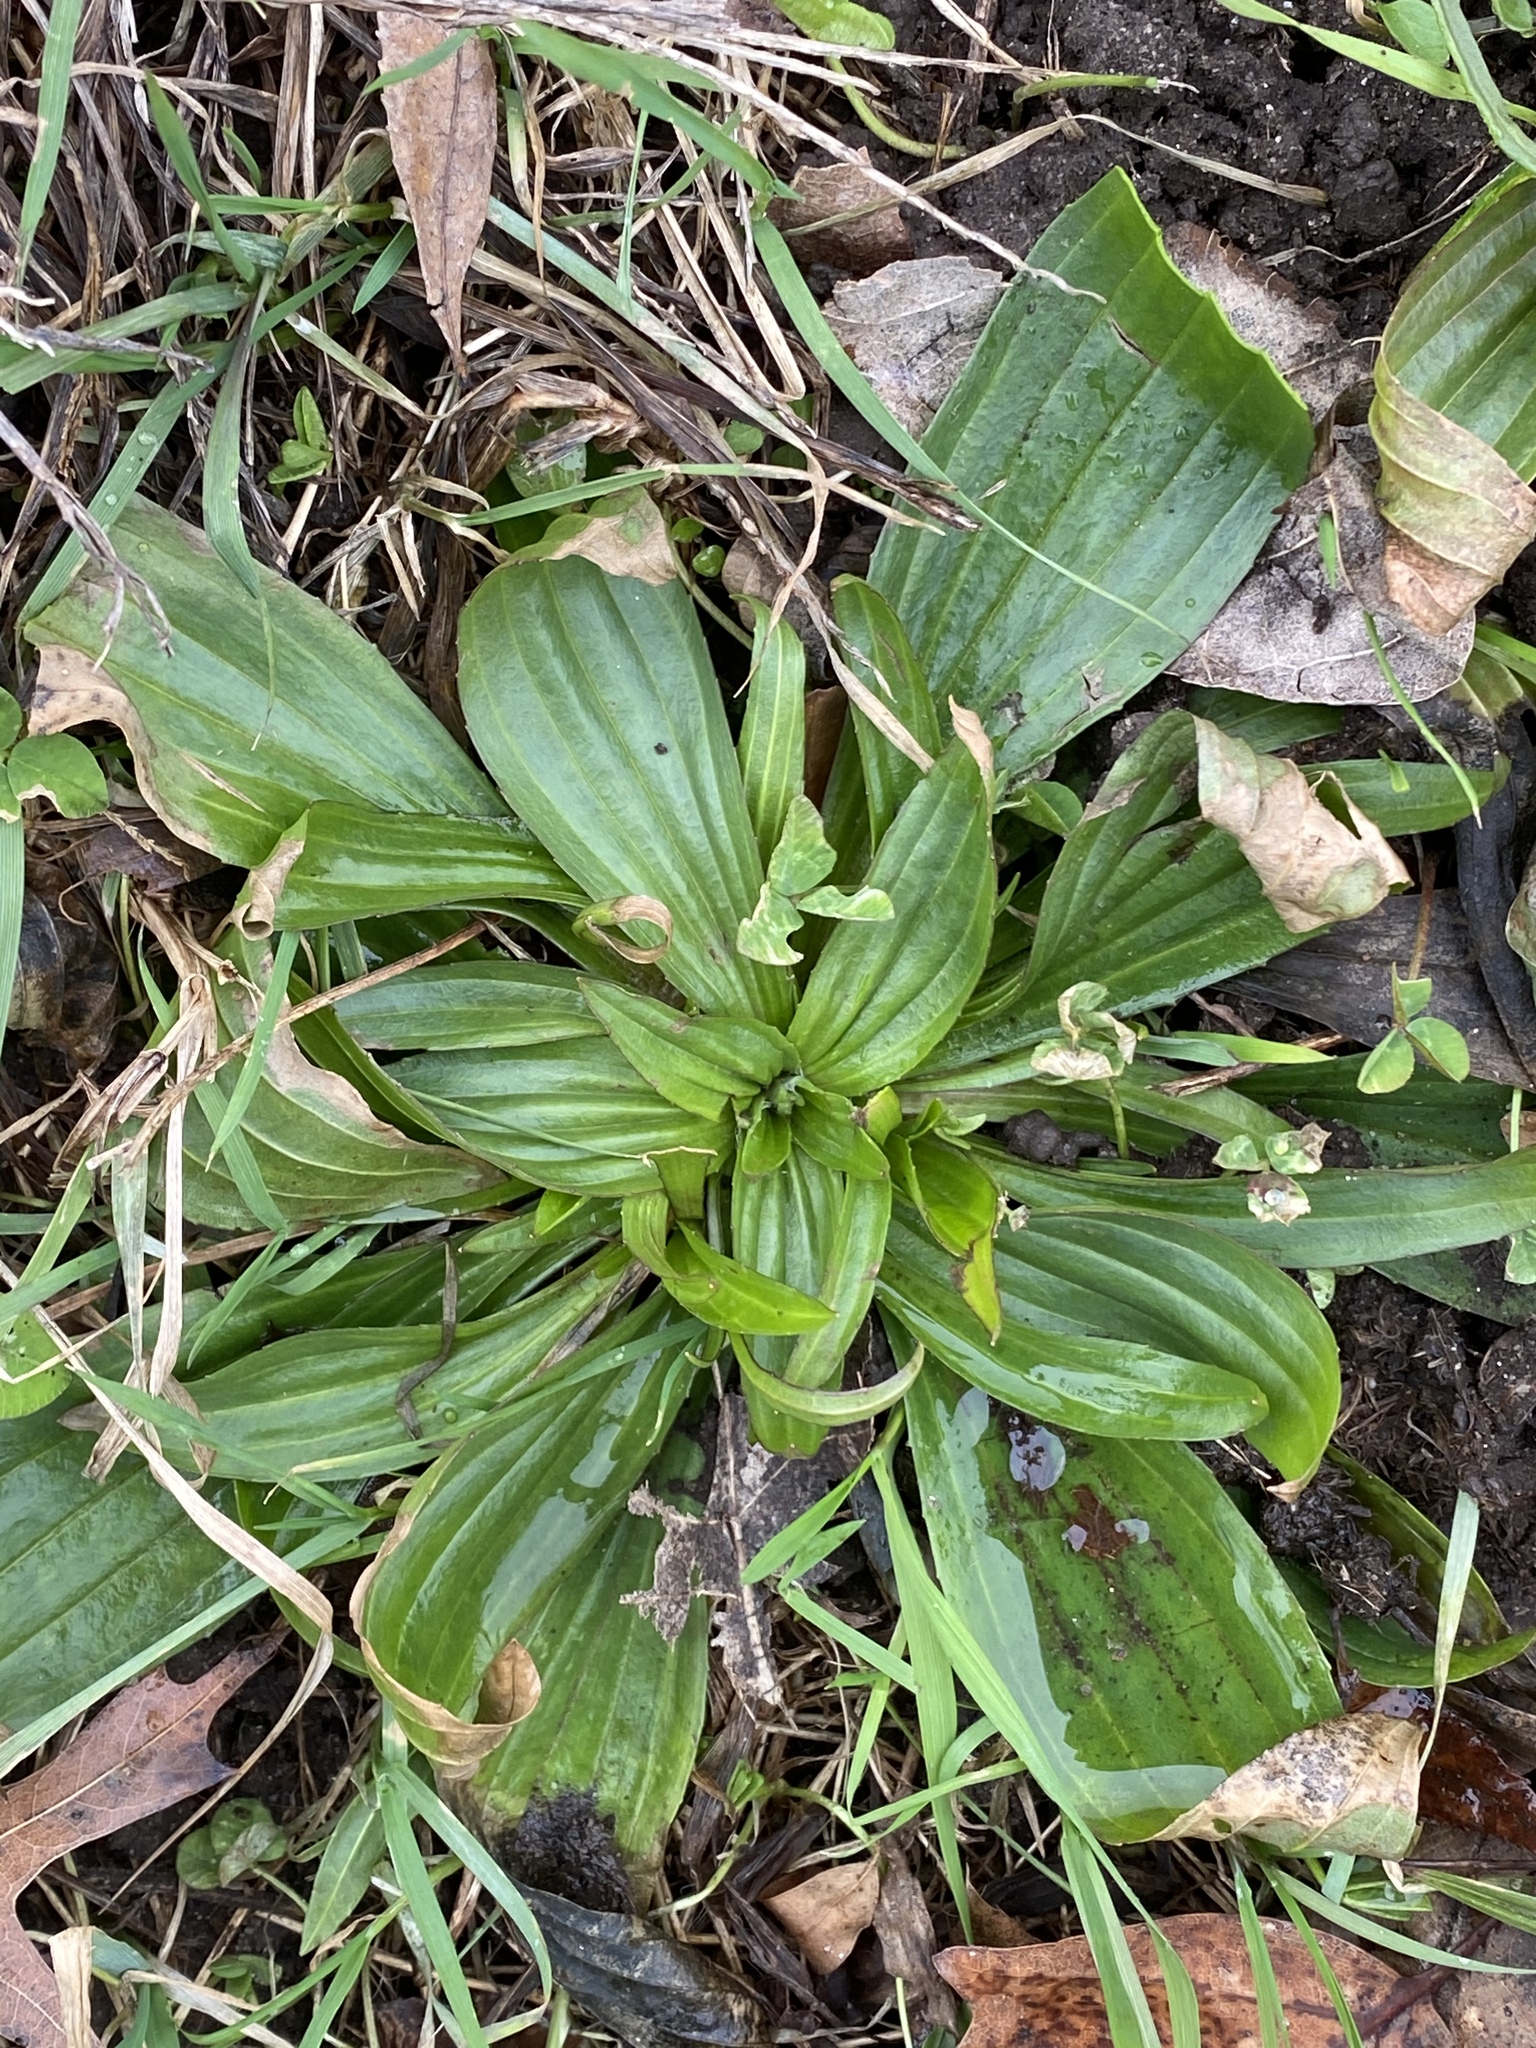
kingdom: Plantae
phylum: Tracheophyta
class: Magnoliopsida
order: Lamiales
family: Plantaginaceae
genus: Plantago
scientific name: Plantago lanceolata
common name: Ribwort plantain
